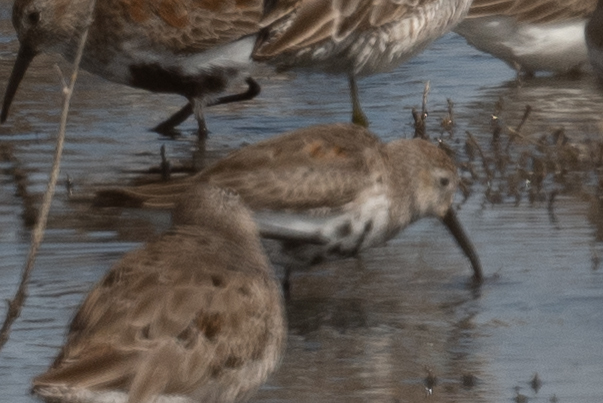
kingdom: Animalia
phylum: Chordata
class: Aves
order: Charadriiformes
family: Scolopacidae
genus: Calidris
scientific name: Calidris alpina
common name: Dunlin
